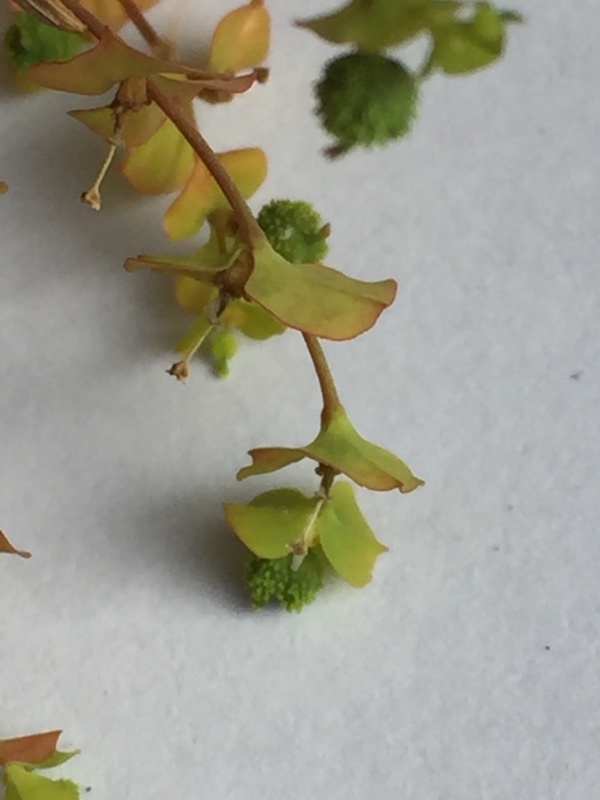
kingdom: Plantae
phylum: Tracheophyta
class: Magnoliopsida
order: Malpighiales
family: Euphorbiaceae
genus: Euphorbia
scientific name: Euphorbia stricta
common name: Upright spurge
